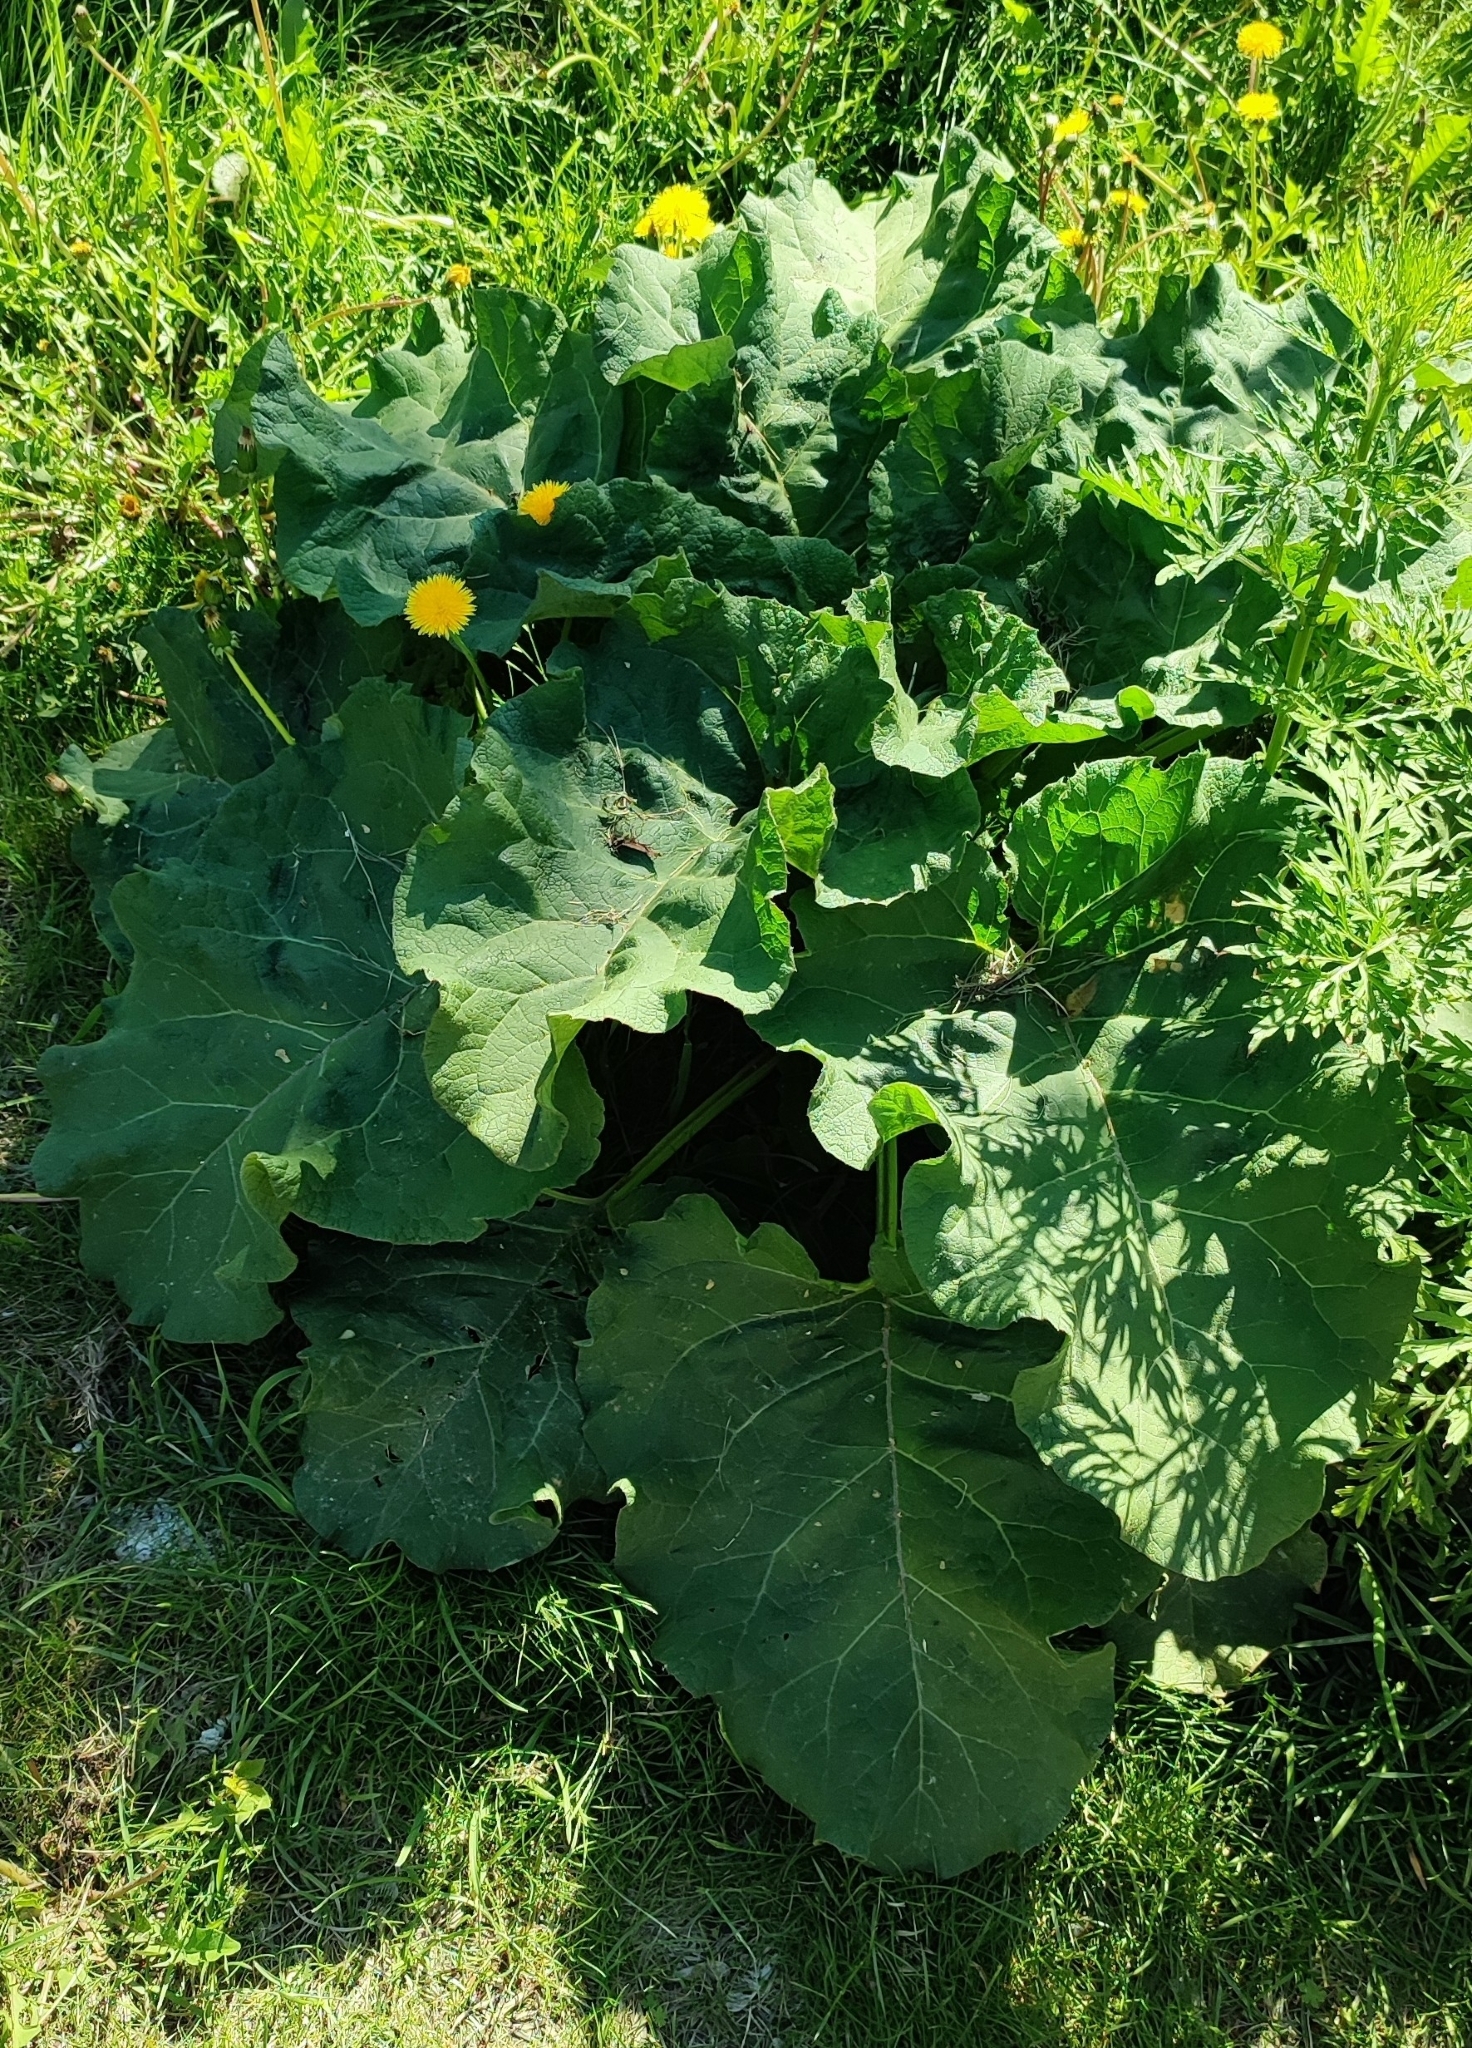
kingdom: Plantae
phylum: Tracheophyta
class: Magnoliopsida
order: Asterales
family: Asteraceae
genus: Arctium
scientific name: Arctium tomentosum
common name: Woolly burdock
